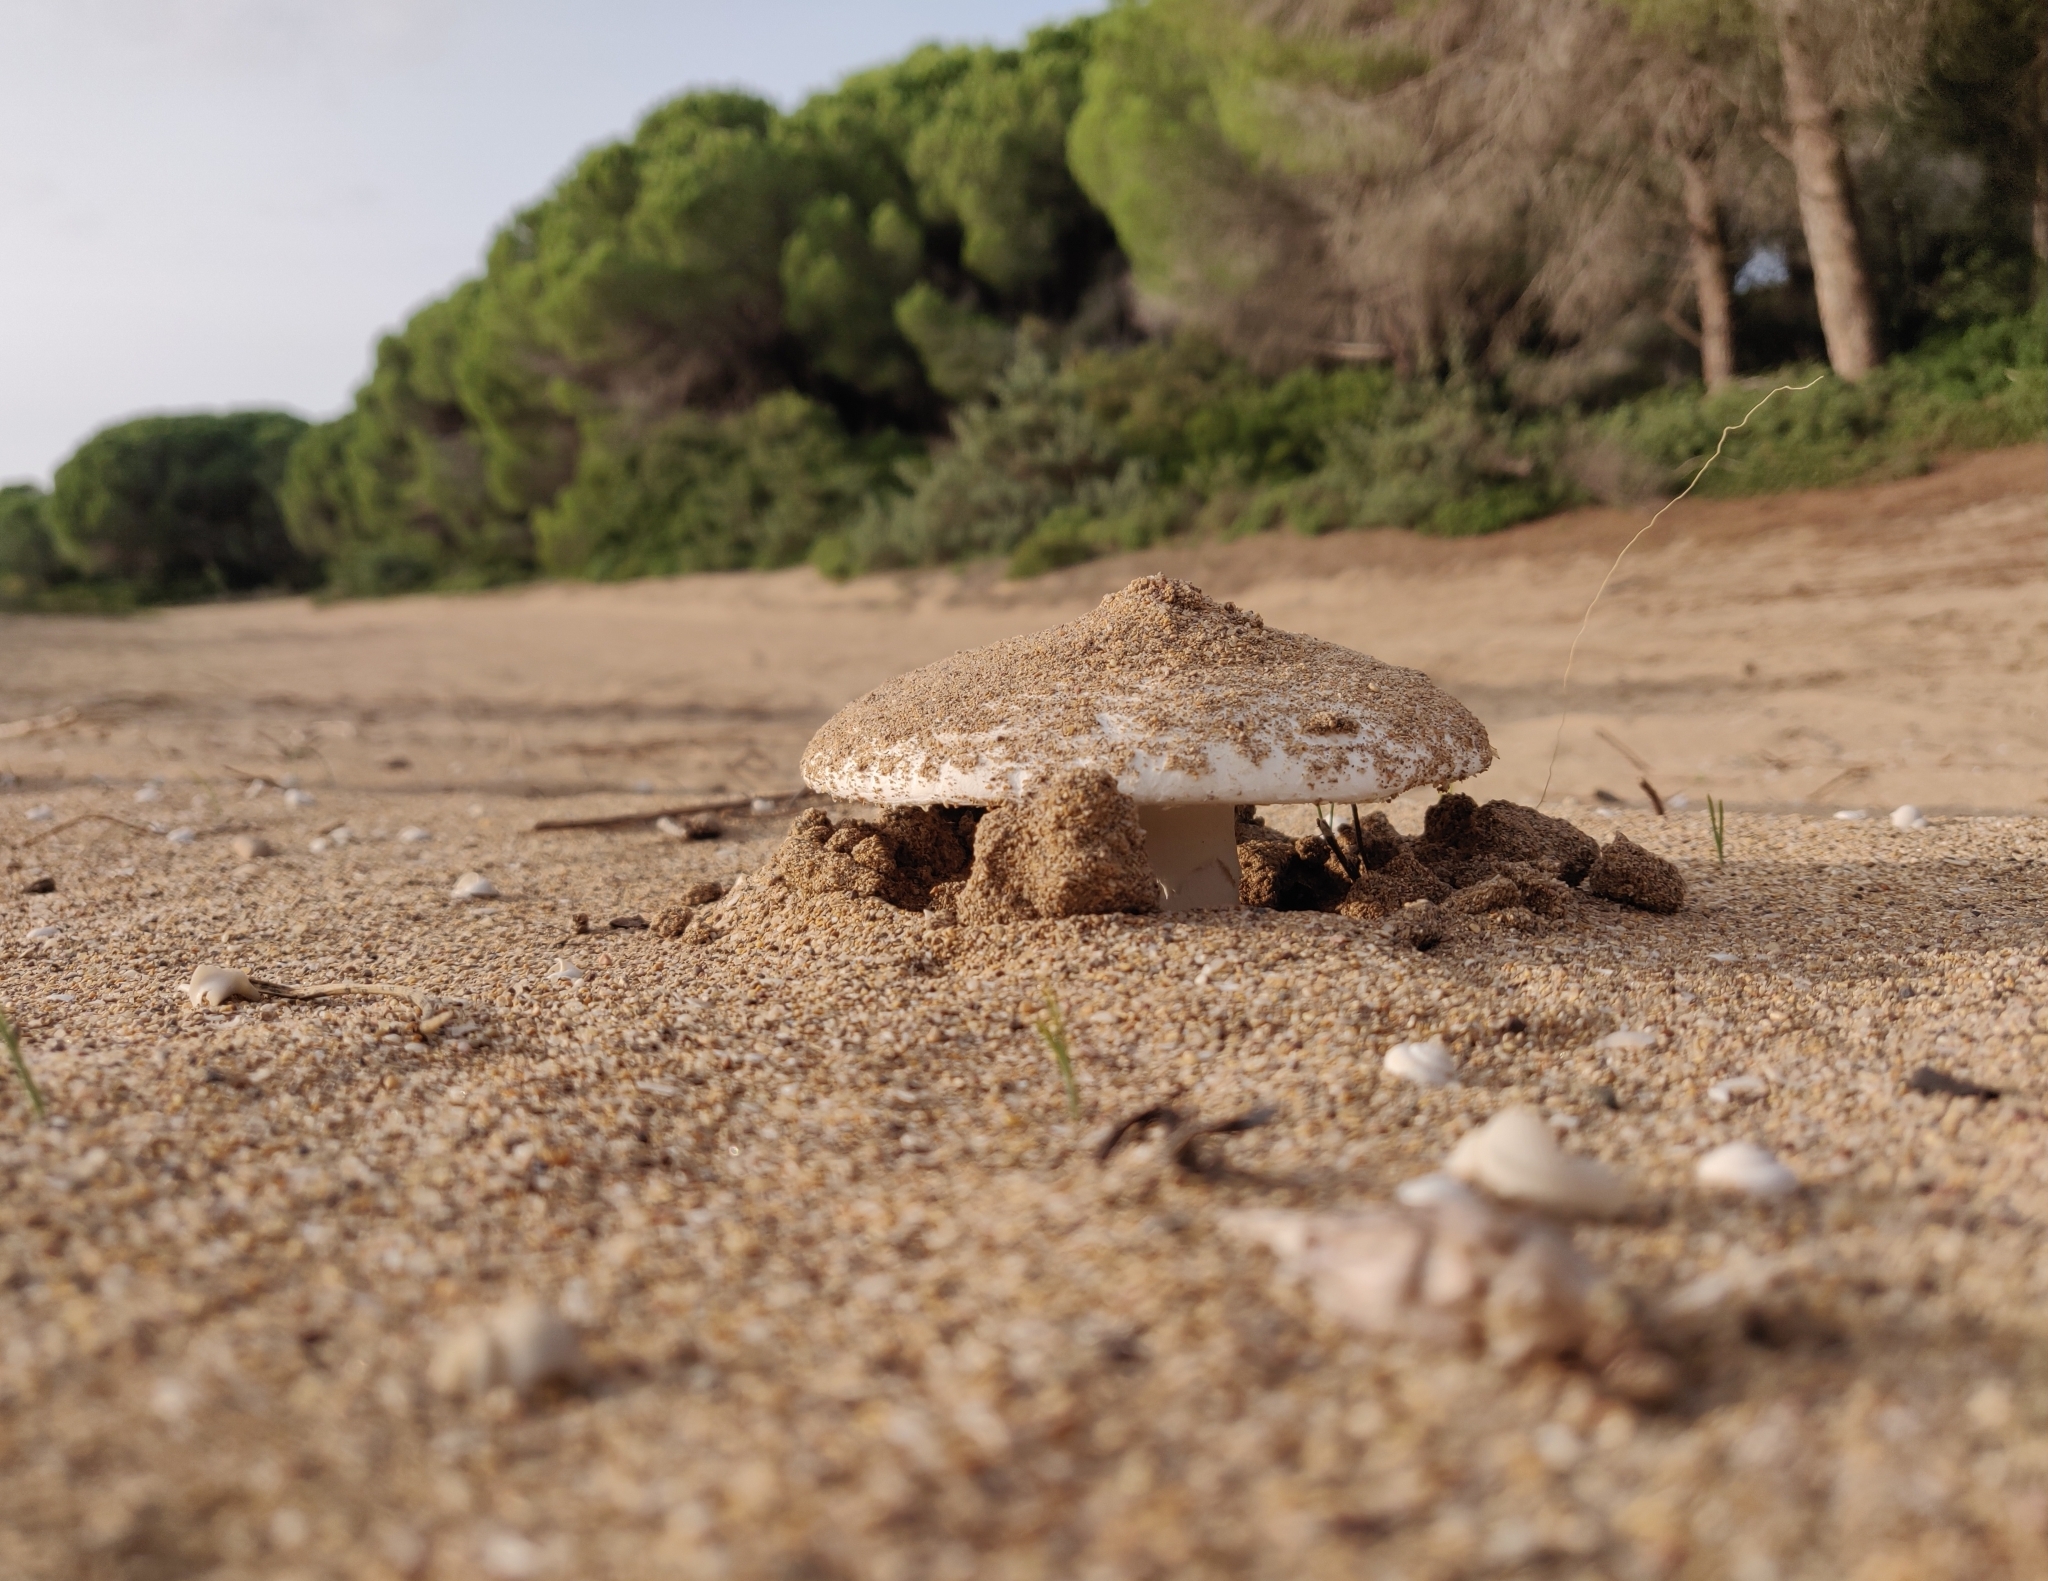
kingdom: Fungi
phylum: Basidiomycota
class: Agaricomycetes
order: Agaricales
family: Amanitaceae
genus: Amanita
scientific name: Amanita sabulicola
